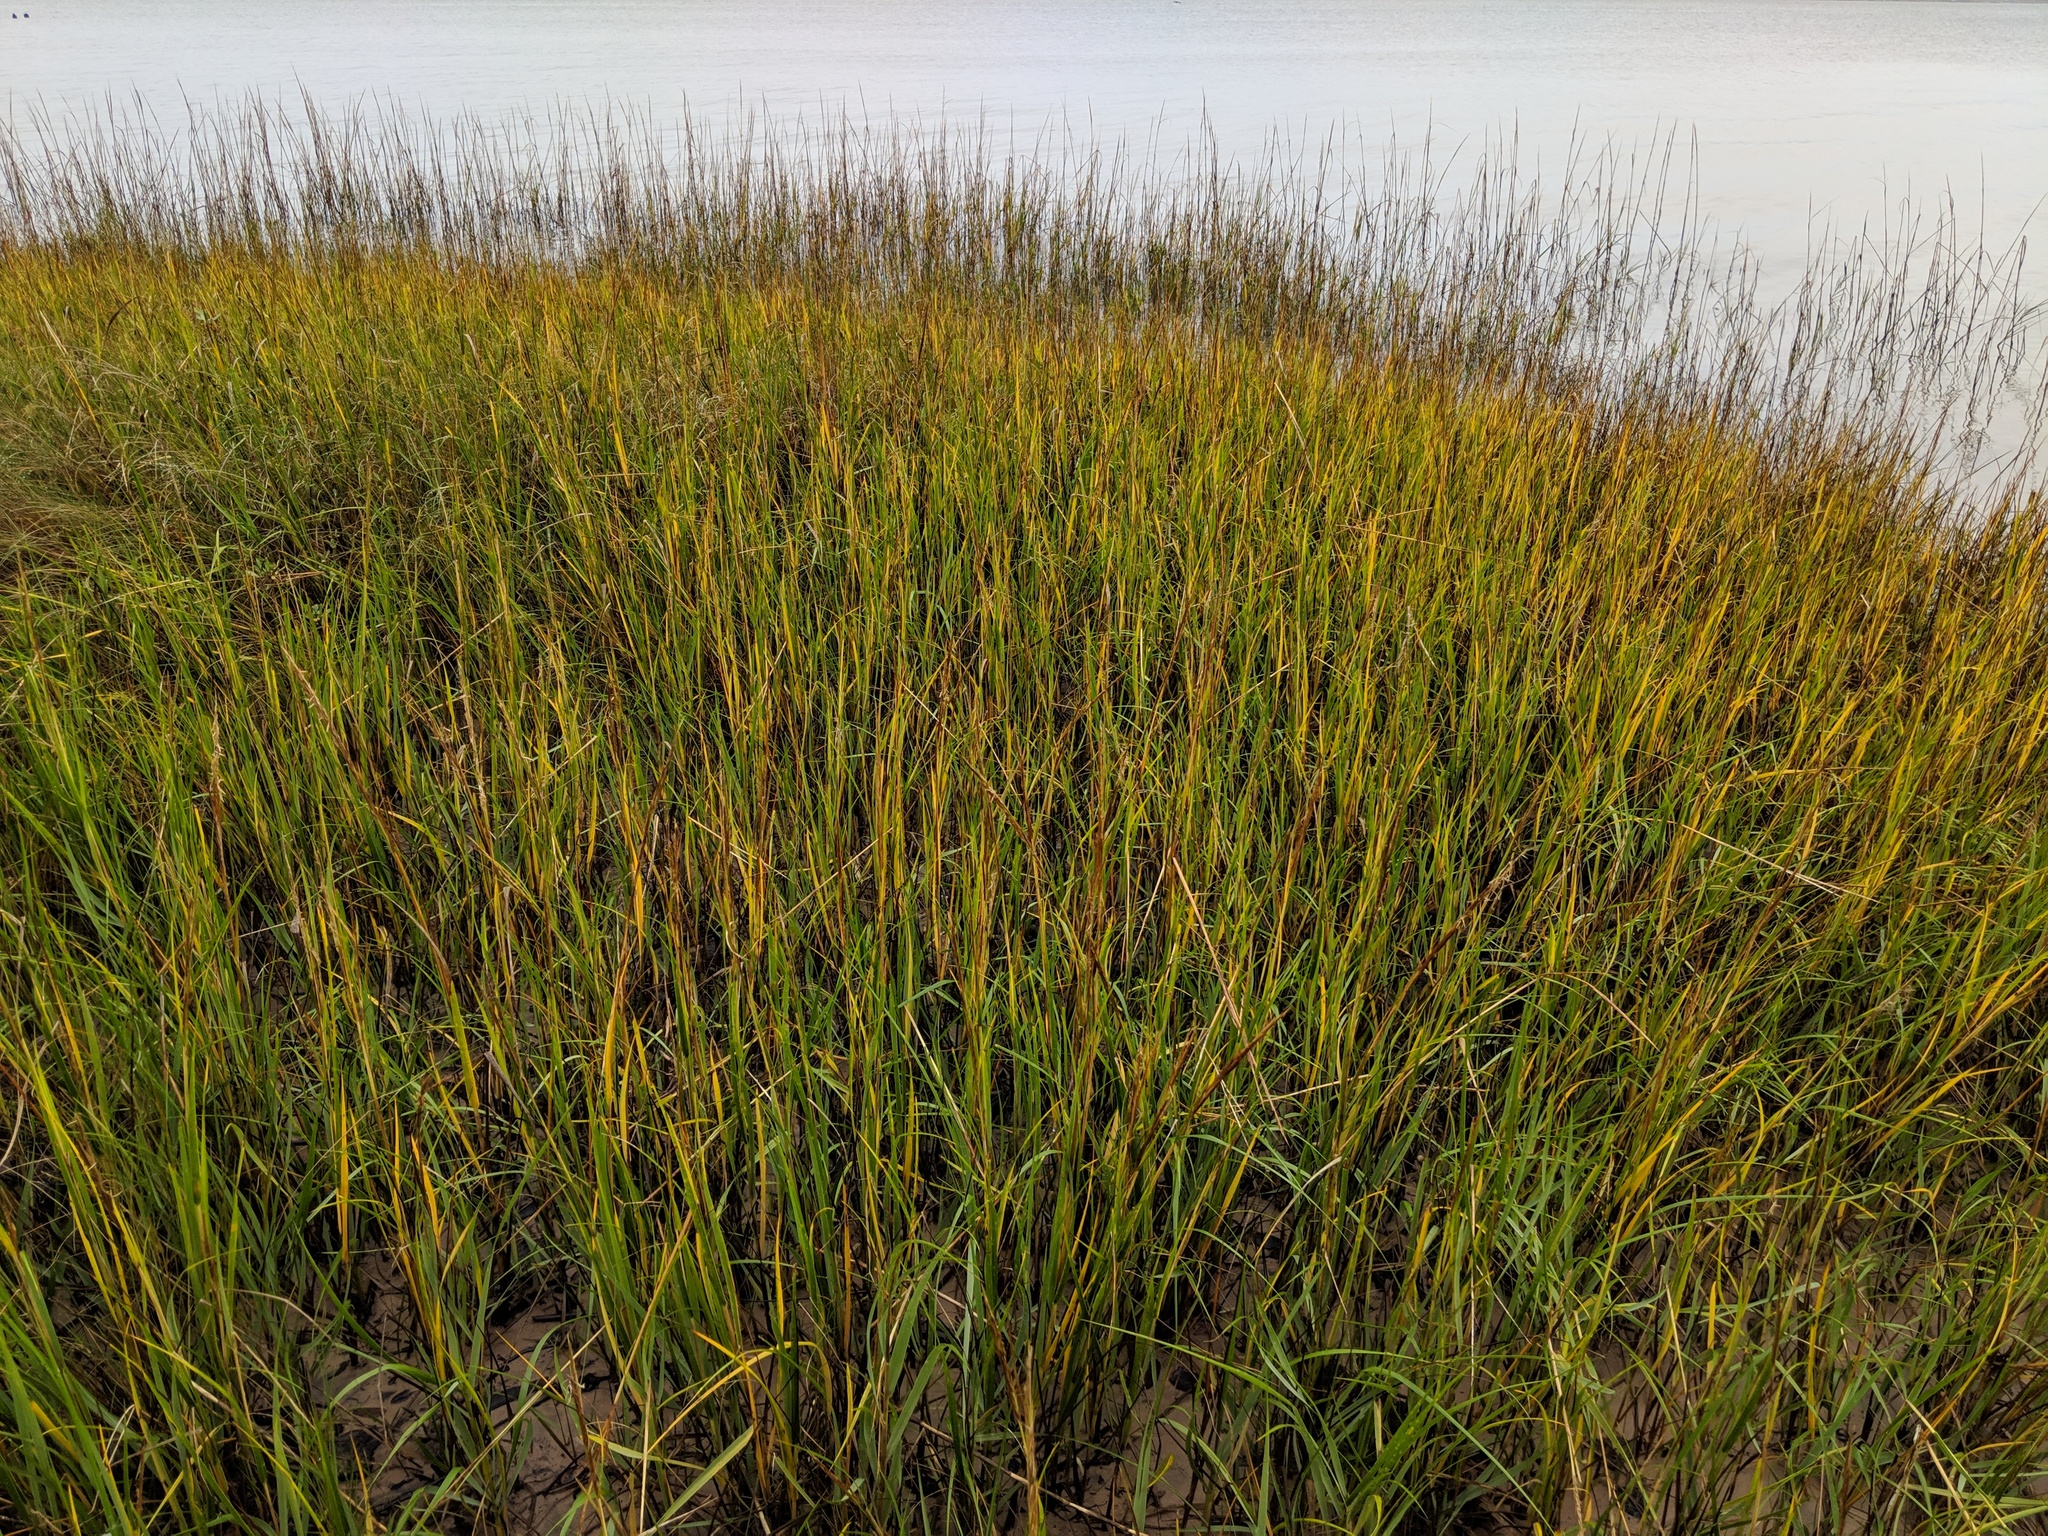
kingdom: Plantae
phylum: Tracheophyta
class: Liliopsida
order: Poales
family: Poaceae
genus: Sporobolus
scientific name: Sporobolus alterniflorus
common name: Atlantic cordgrass
